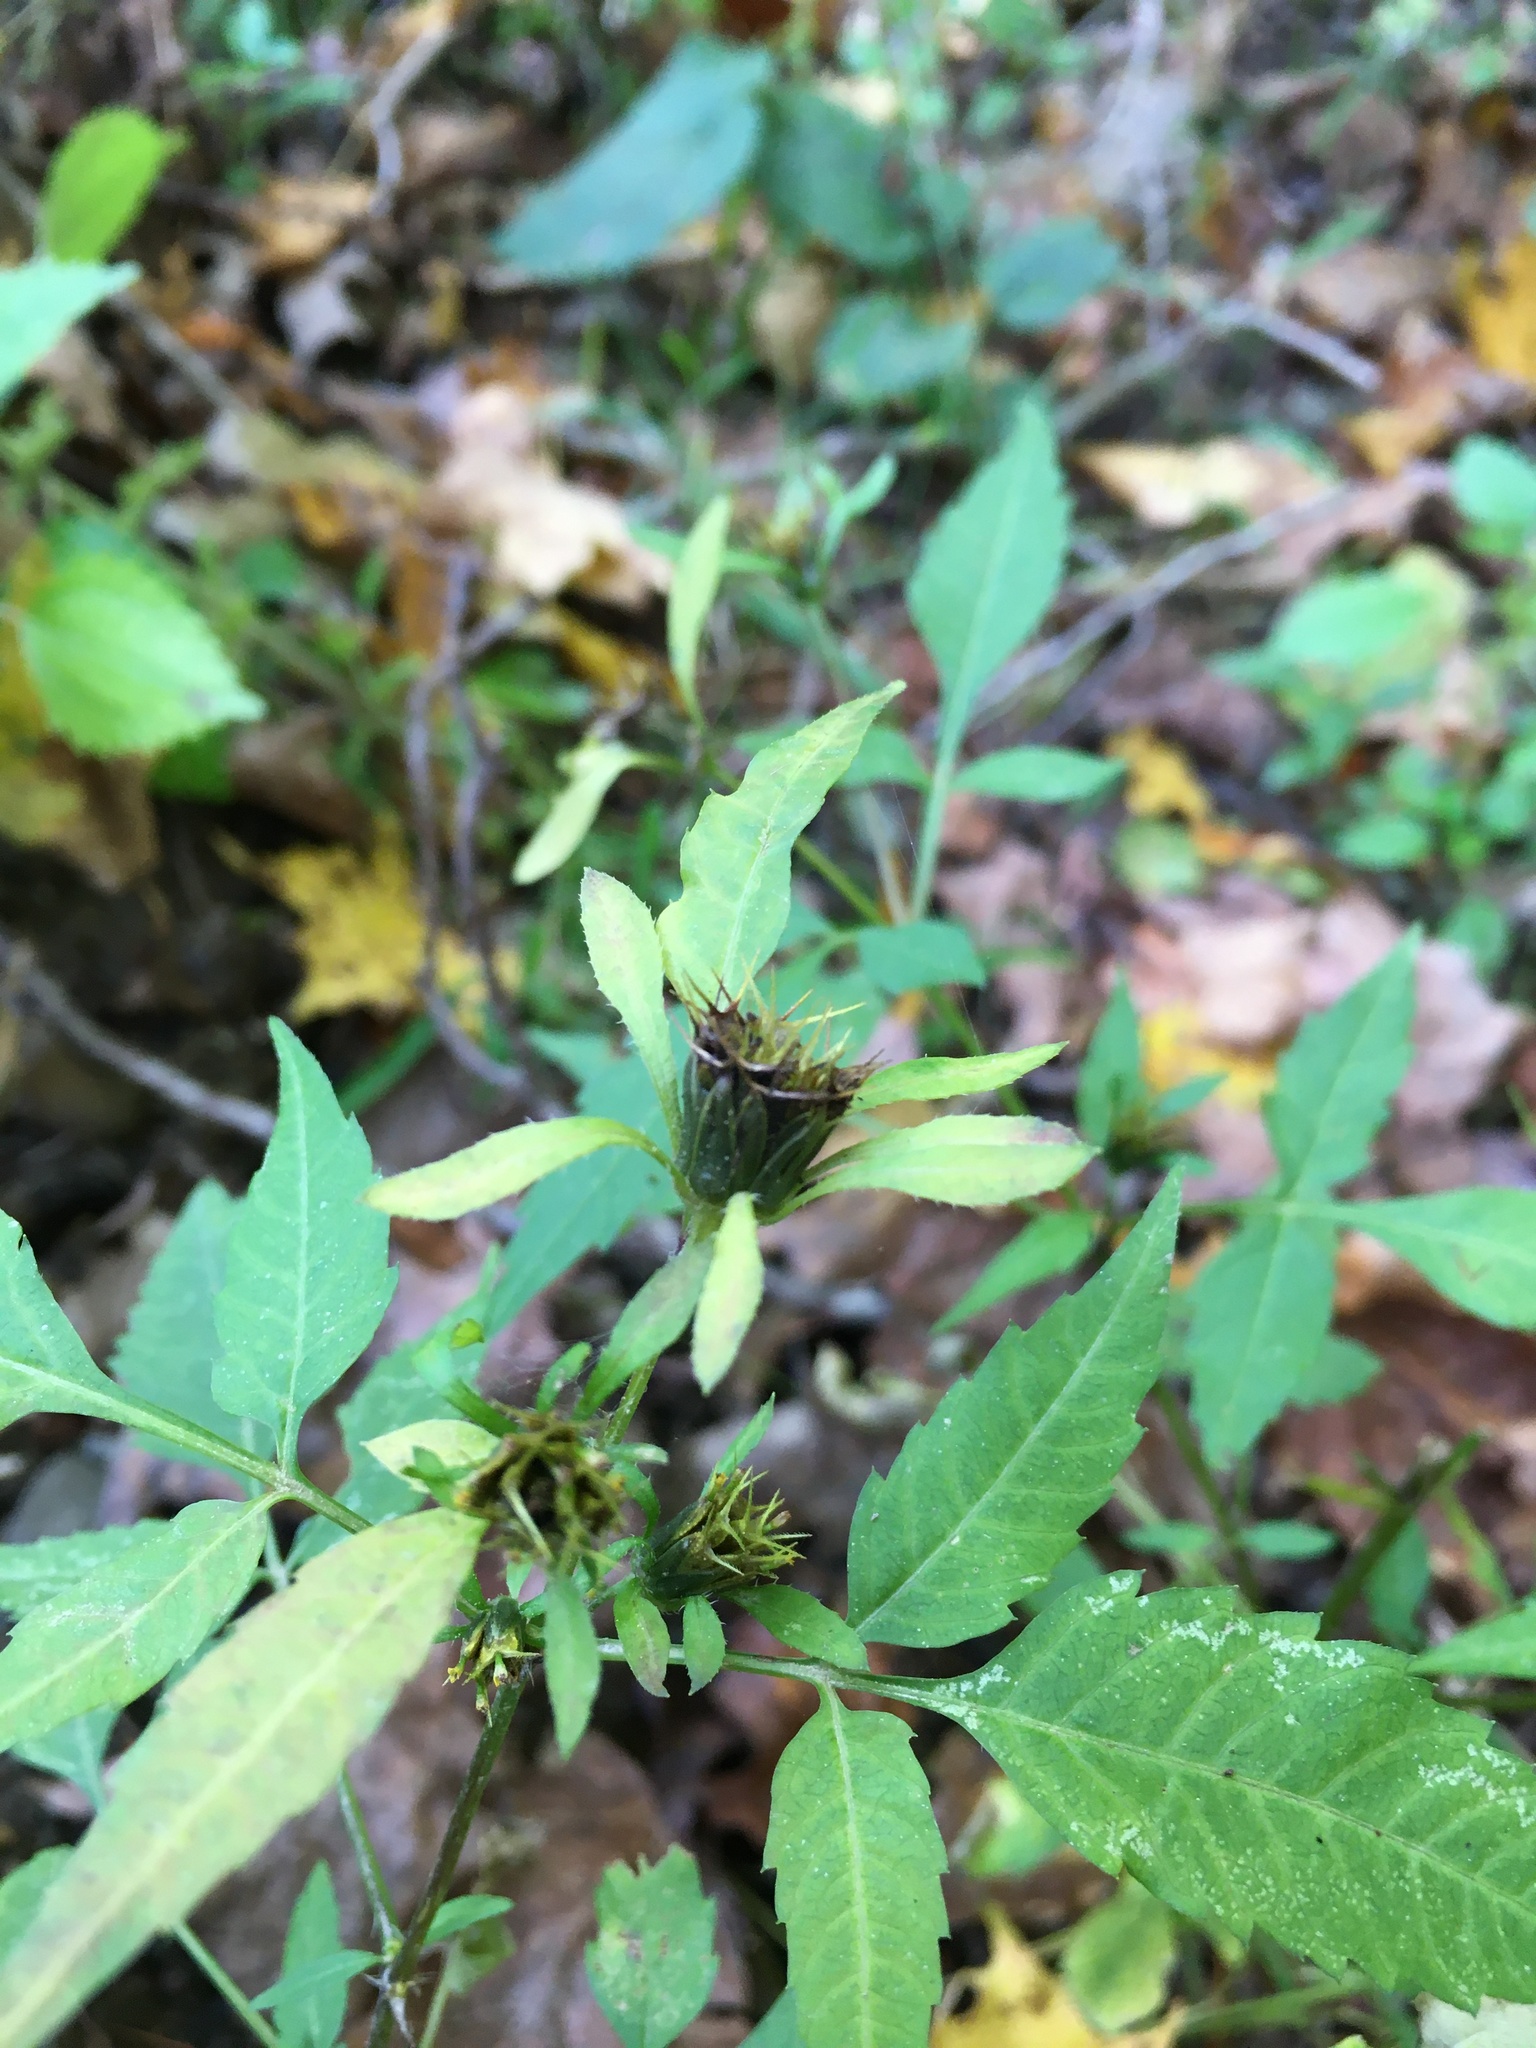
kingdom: Plantae
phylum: Tracheophyta
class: Magnoliopsida
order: Asterales
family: Asteraceae
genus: Bidens
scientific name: Bidens frondosa
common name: Beggarticks
